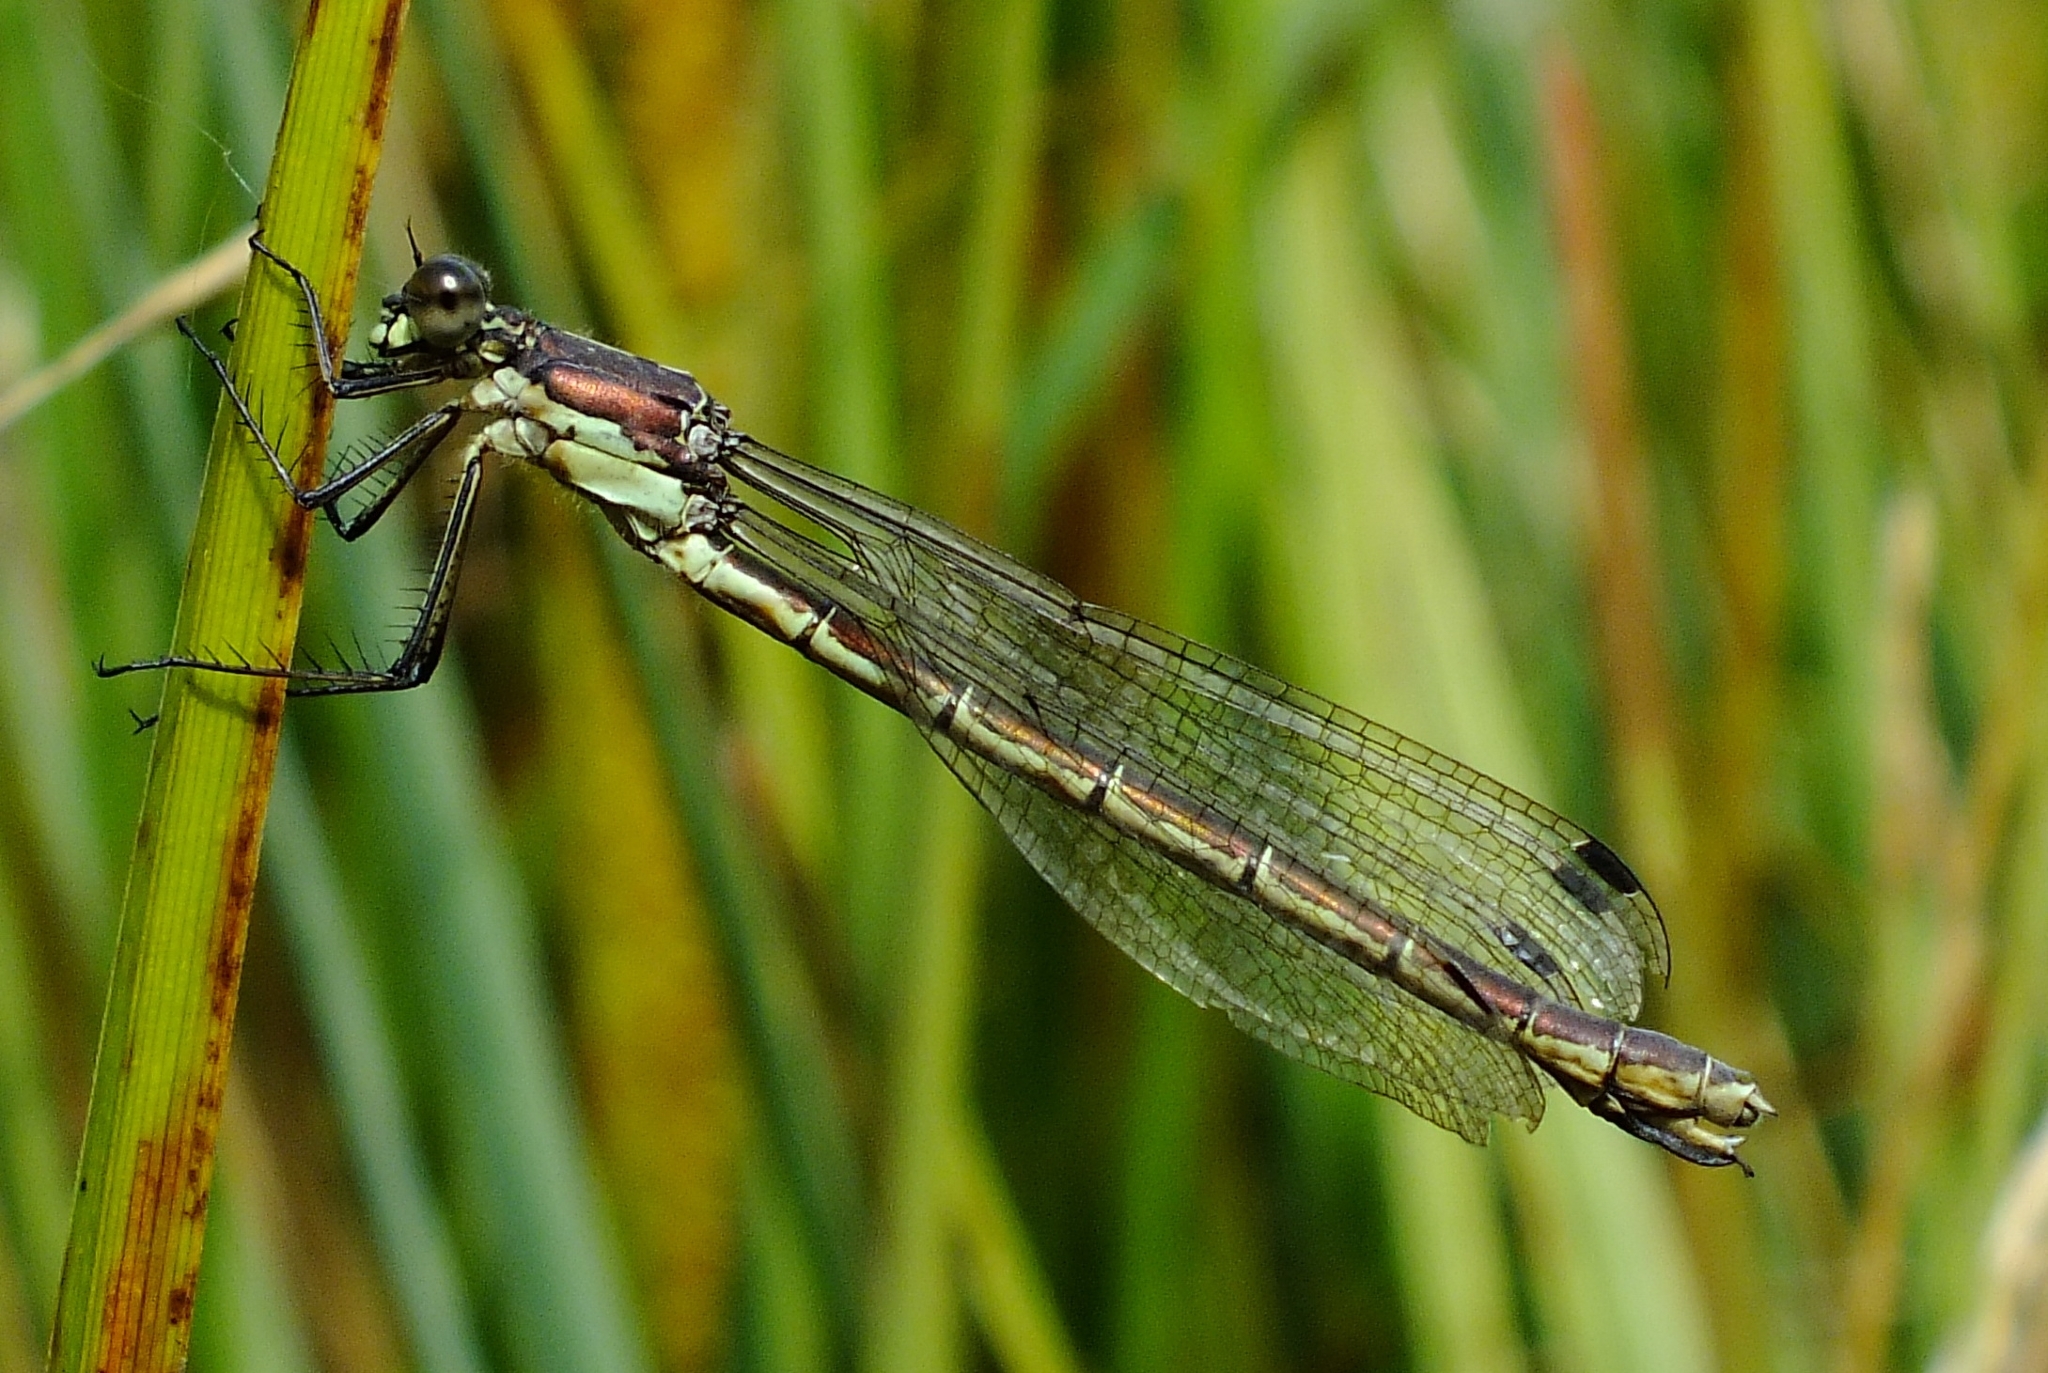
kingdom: Animalia
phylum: Arthropoda
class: Insecta
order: Odonata
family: Lestidae
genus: Lestes
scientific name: Lestes dryas
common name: Scarce emerald damselfly
